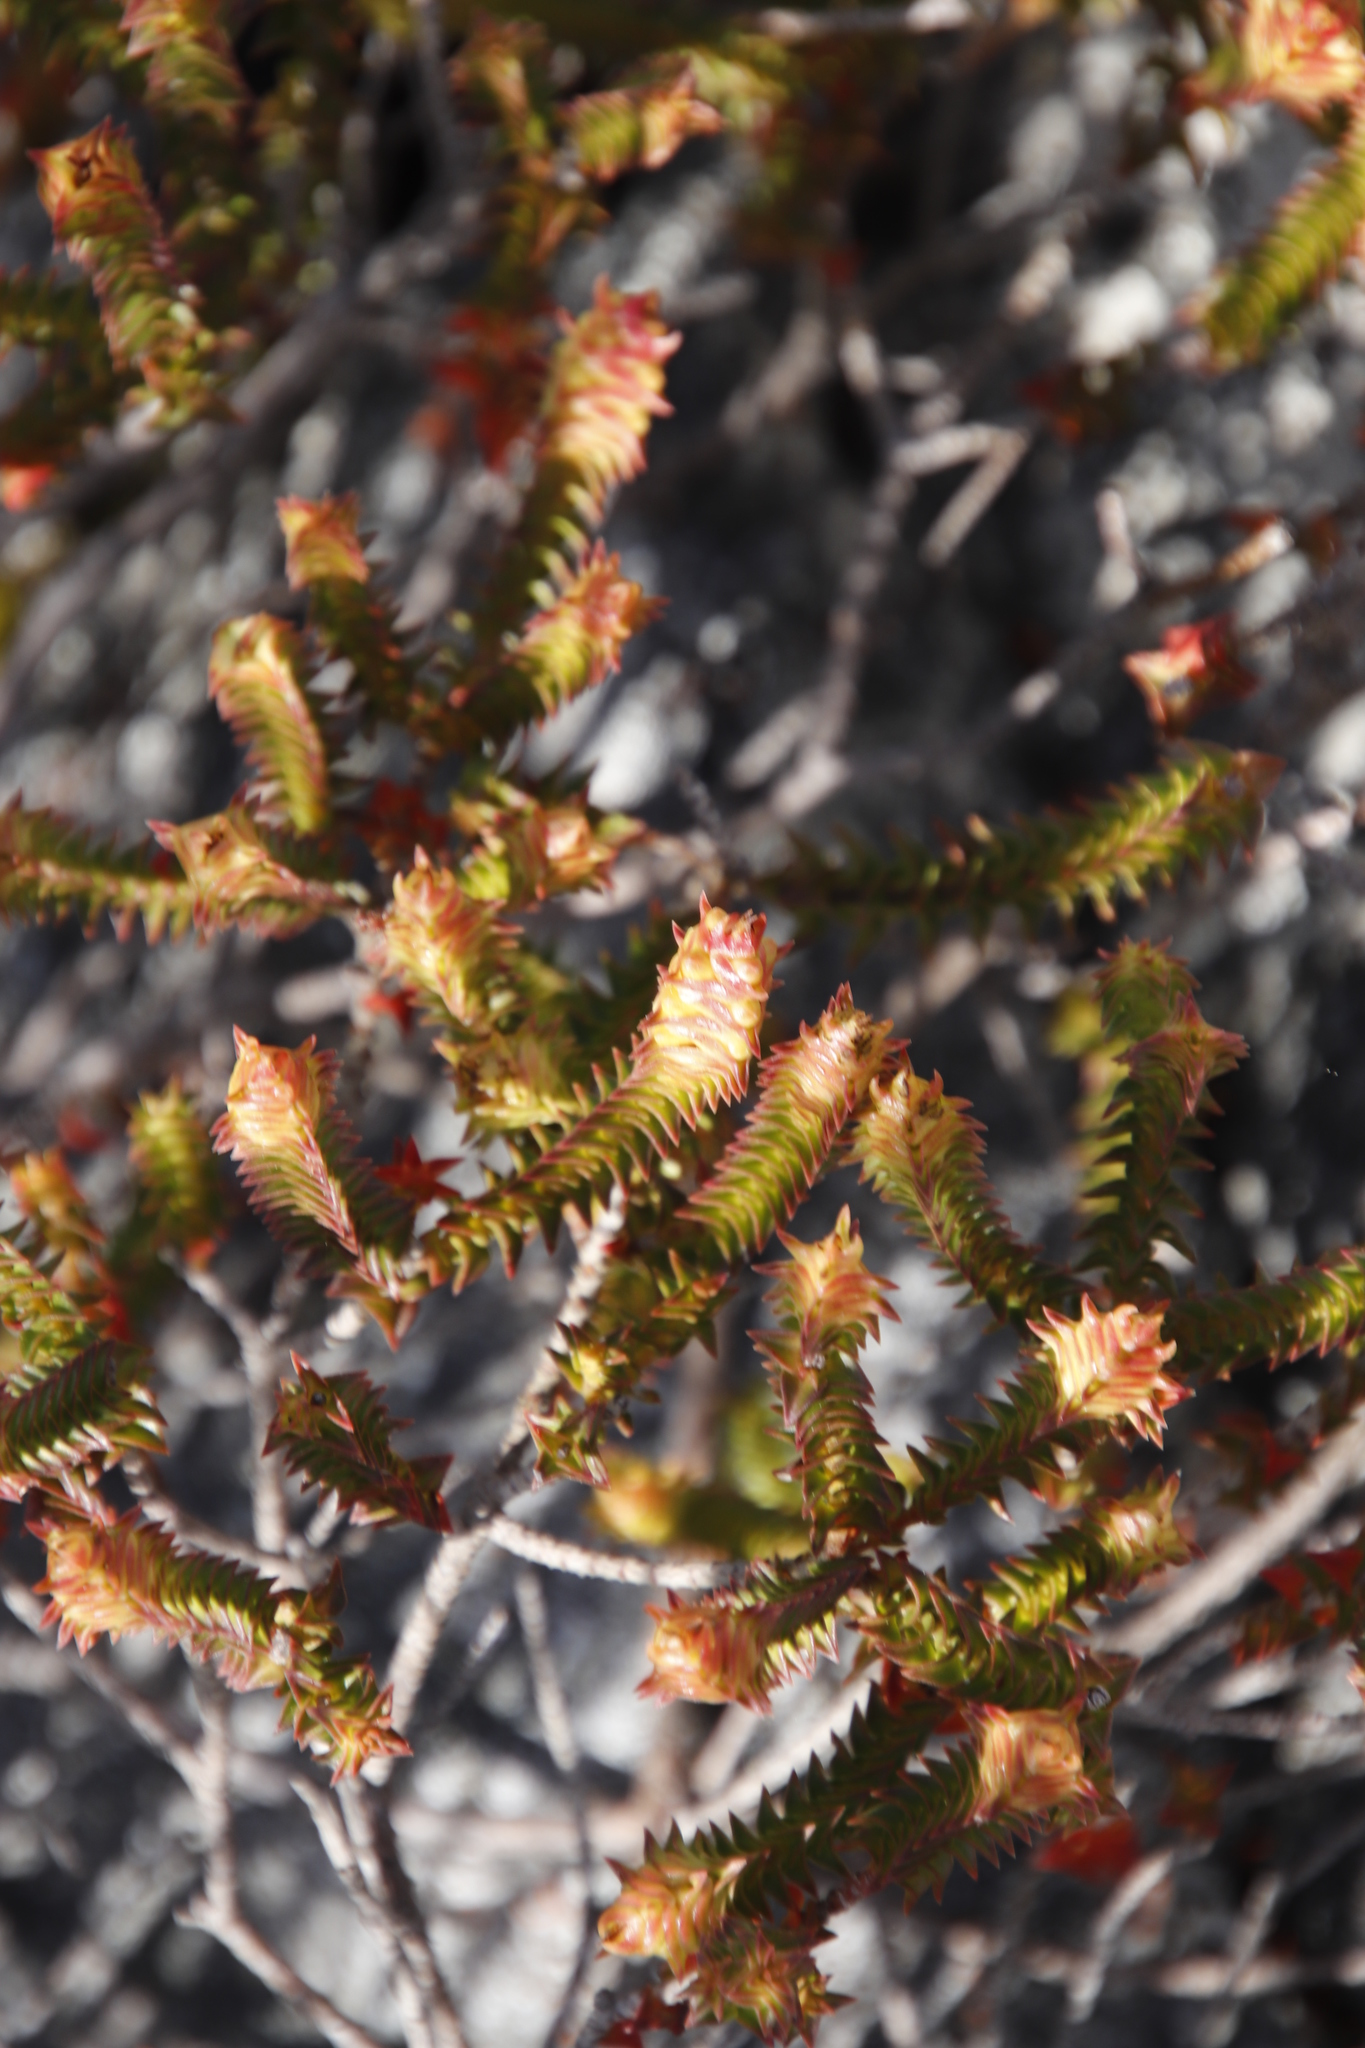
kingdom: Plantae
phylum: Tracheophyta
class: Magnoliopsida
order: Myrtales
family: Penaeaceae
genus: Penaea
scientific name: Penaea mucronata
